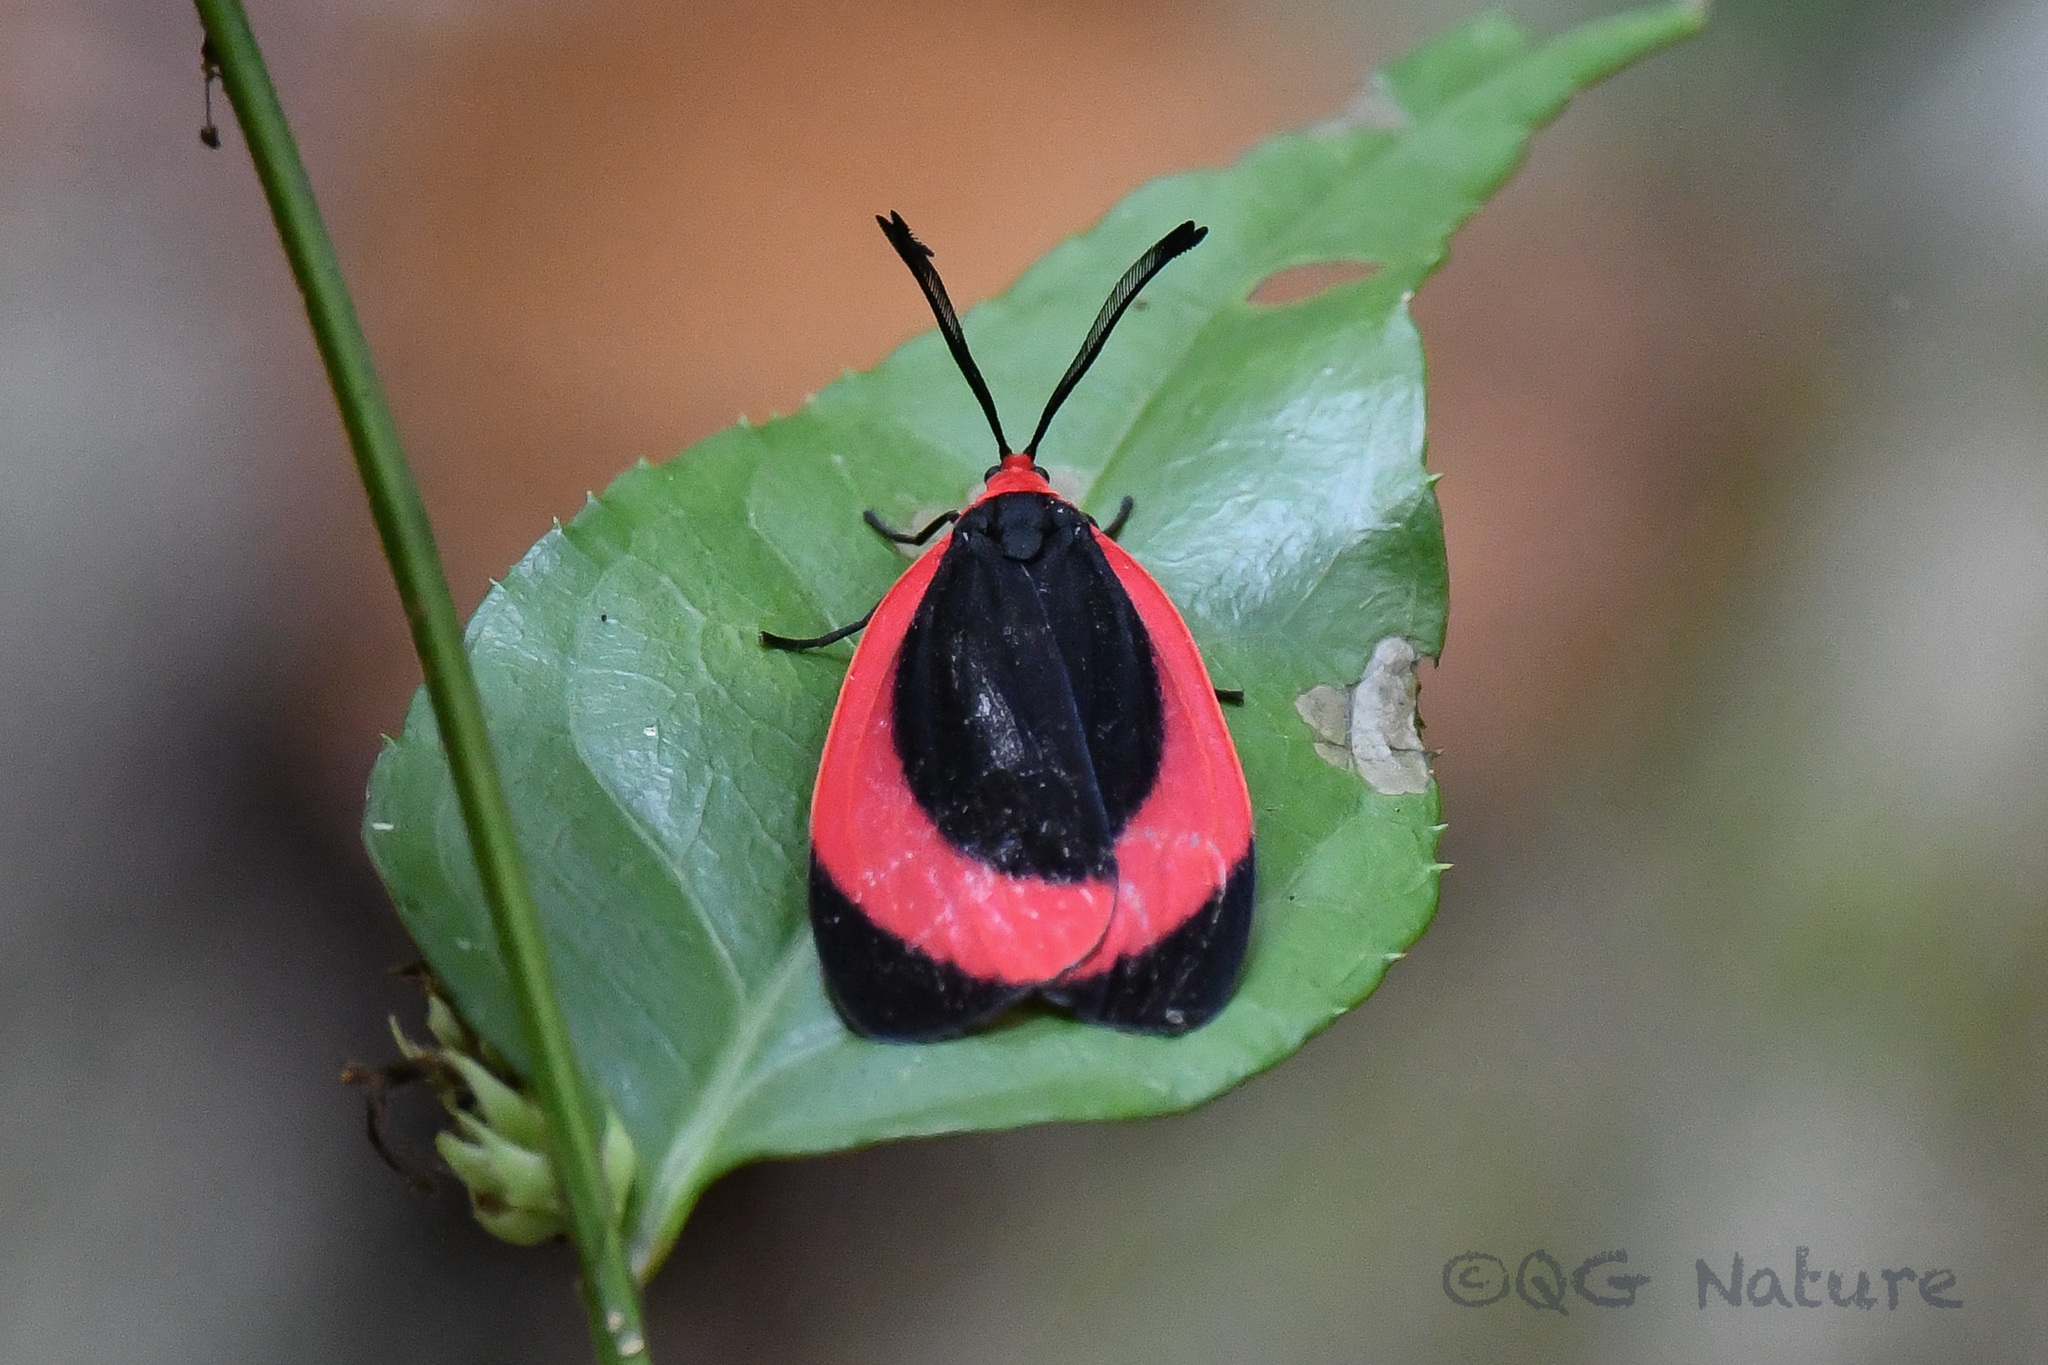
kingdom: Animalia
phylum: Arthropoda
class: Insecta
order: Lepidoptera
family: Zygaenidae
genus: Rhodopsona
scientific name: Rhodopsona rubiginosa
